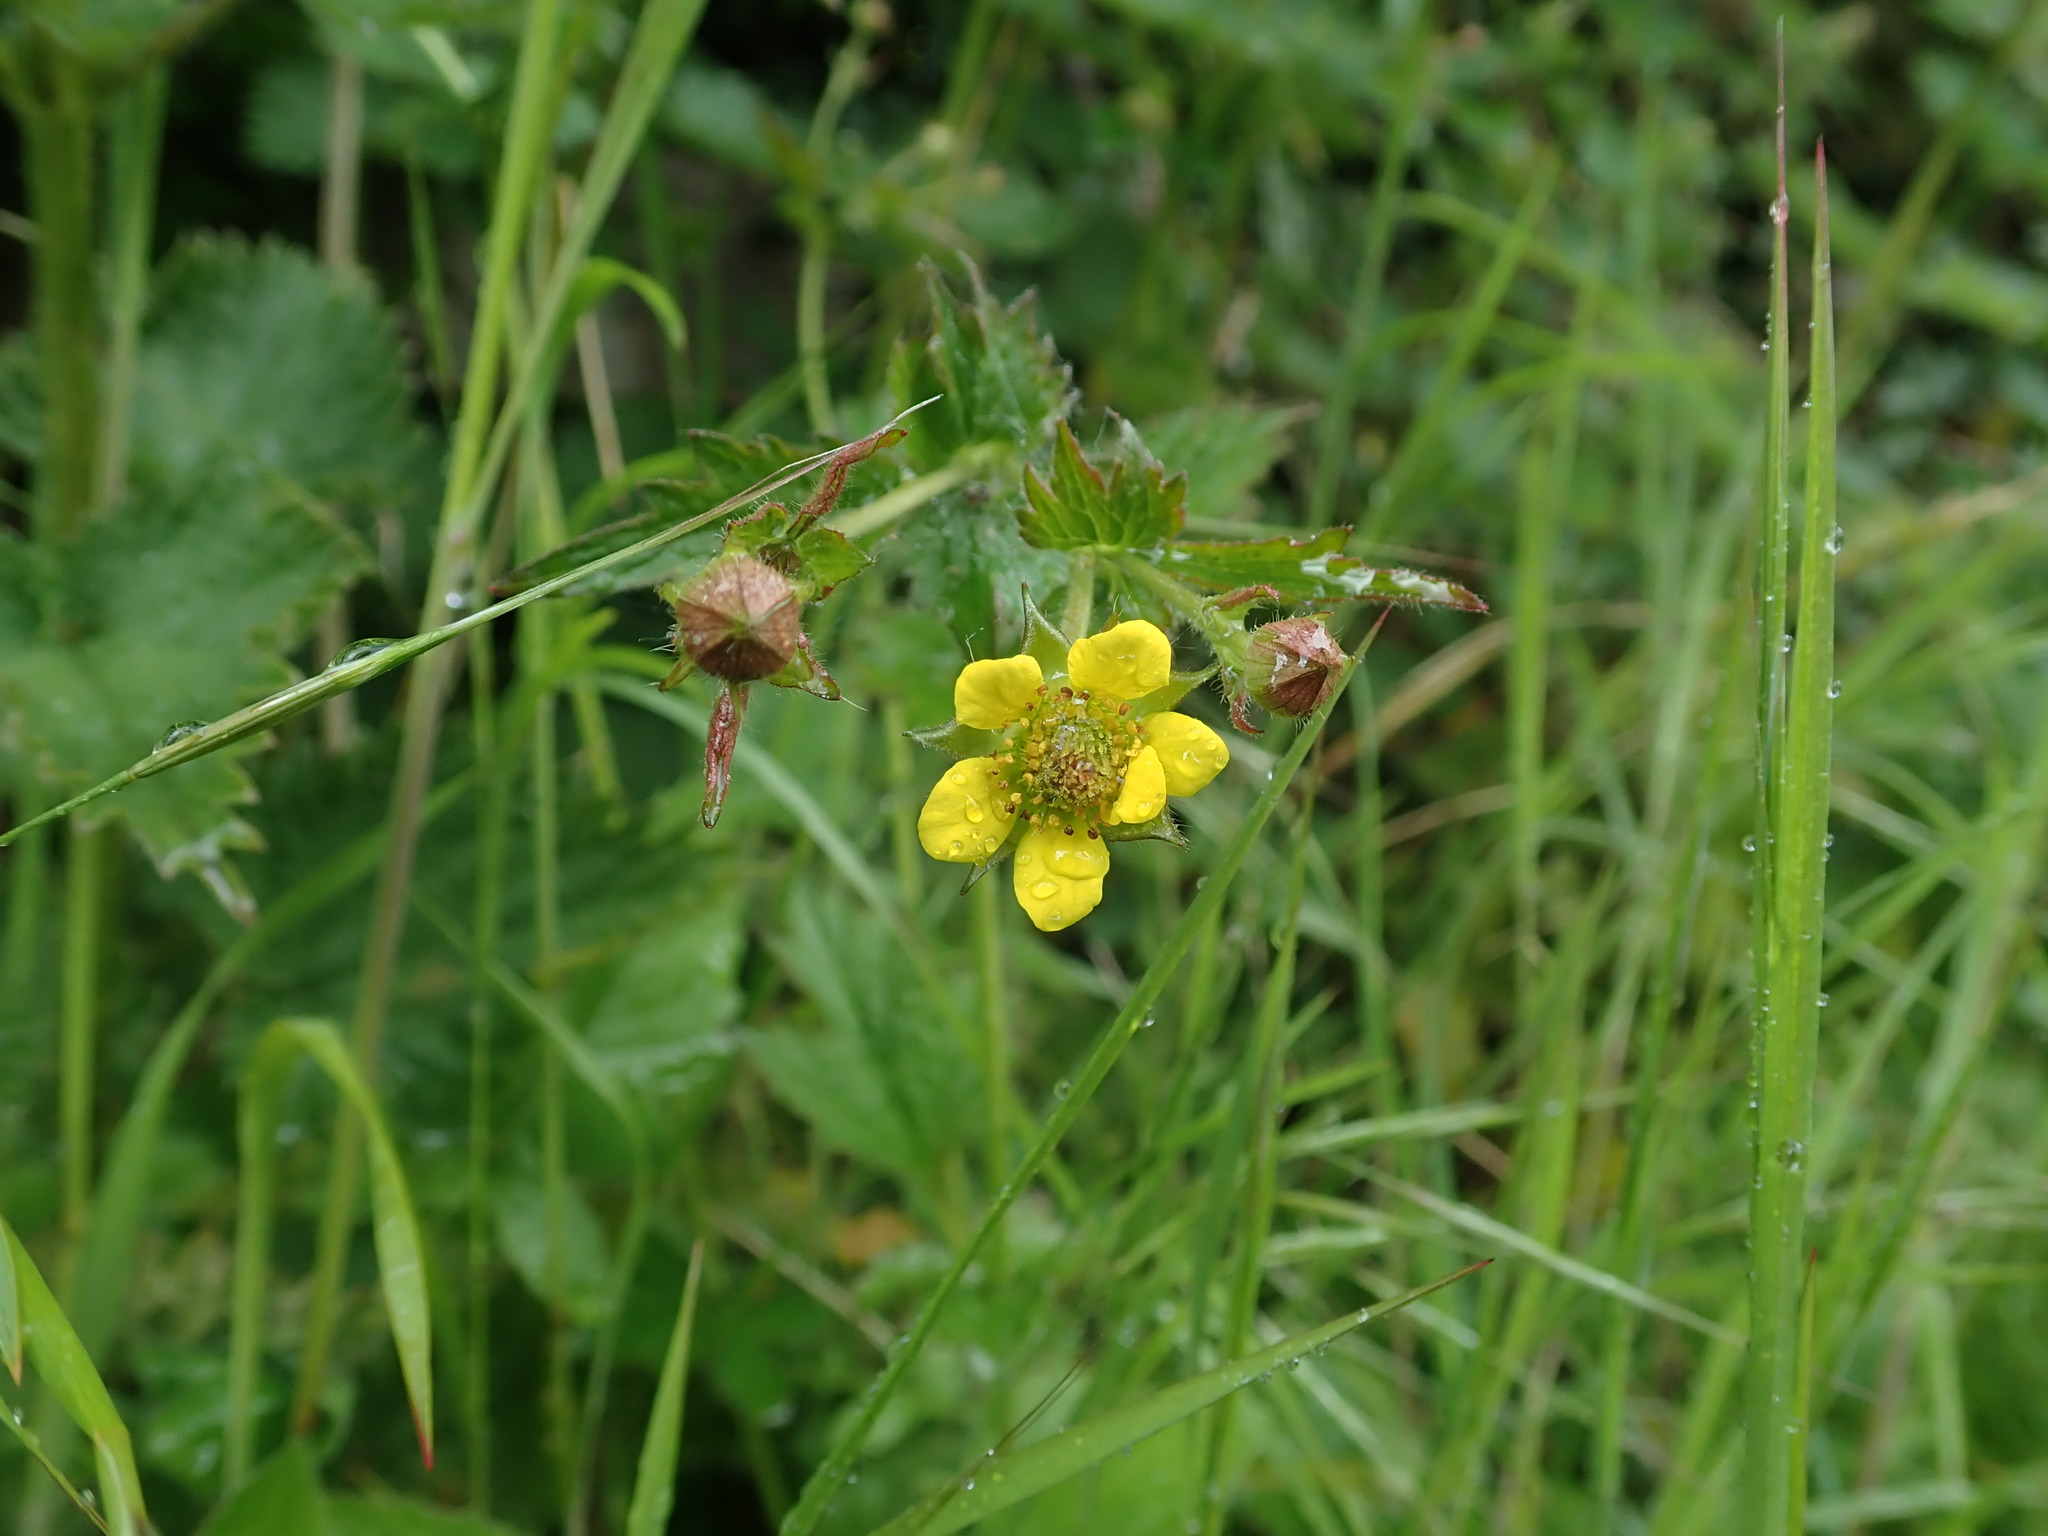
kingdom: Plantae
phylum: Tracheophyta
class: Magnoliopsida
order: Rosales
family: Rosaceae
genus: Geum
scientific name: Geum urbanum
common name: Wood avens
